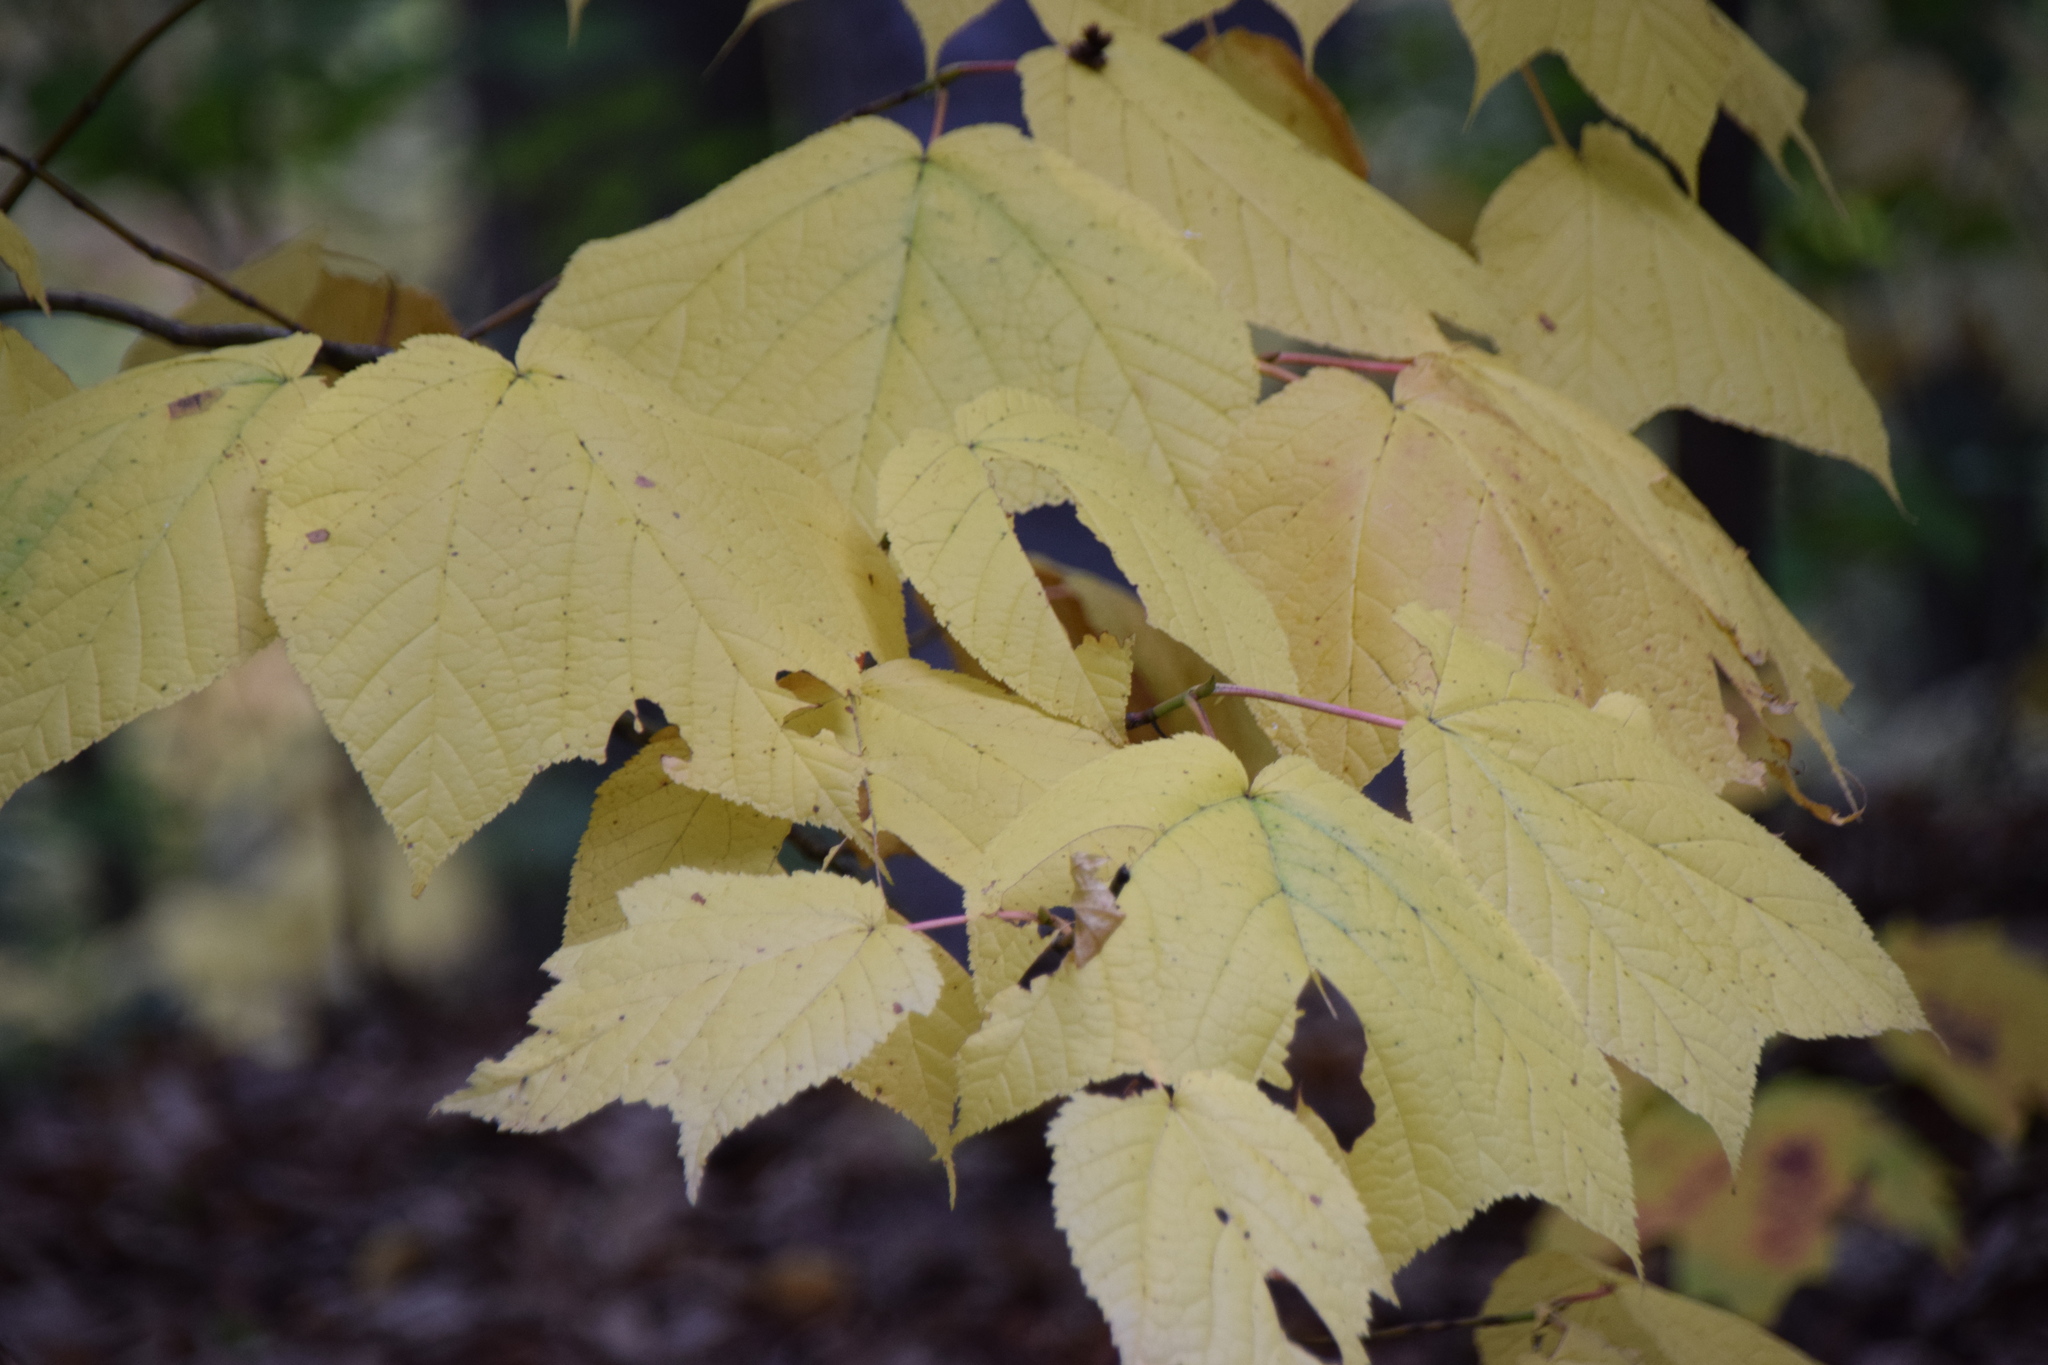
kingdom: Plantae
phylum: Tracheophyta
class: Magnoliopsida
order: Sapindales
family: Sapindaceae
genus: Acer
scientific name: Acer pensylvanicum
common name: Moosewood
